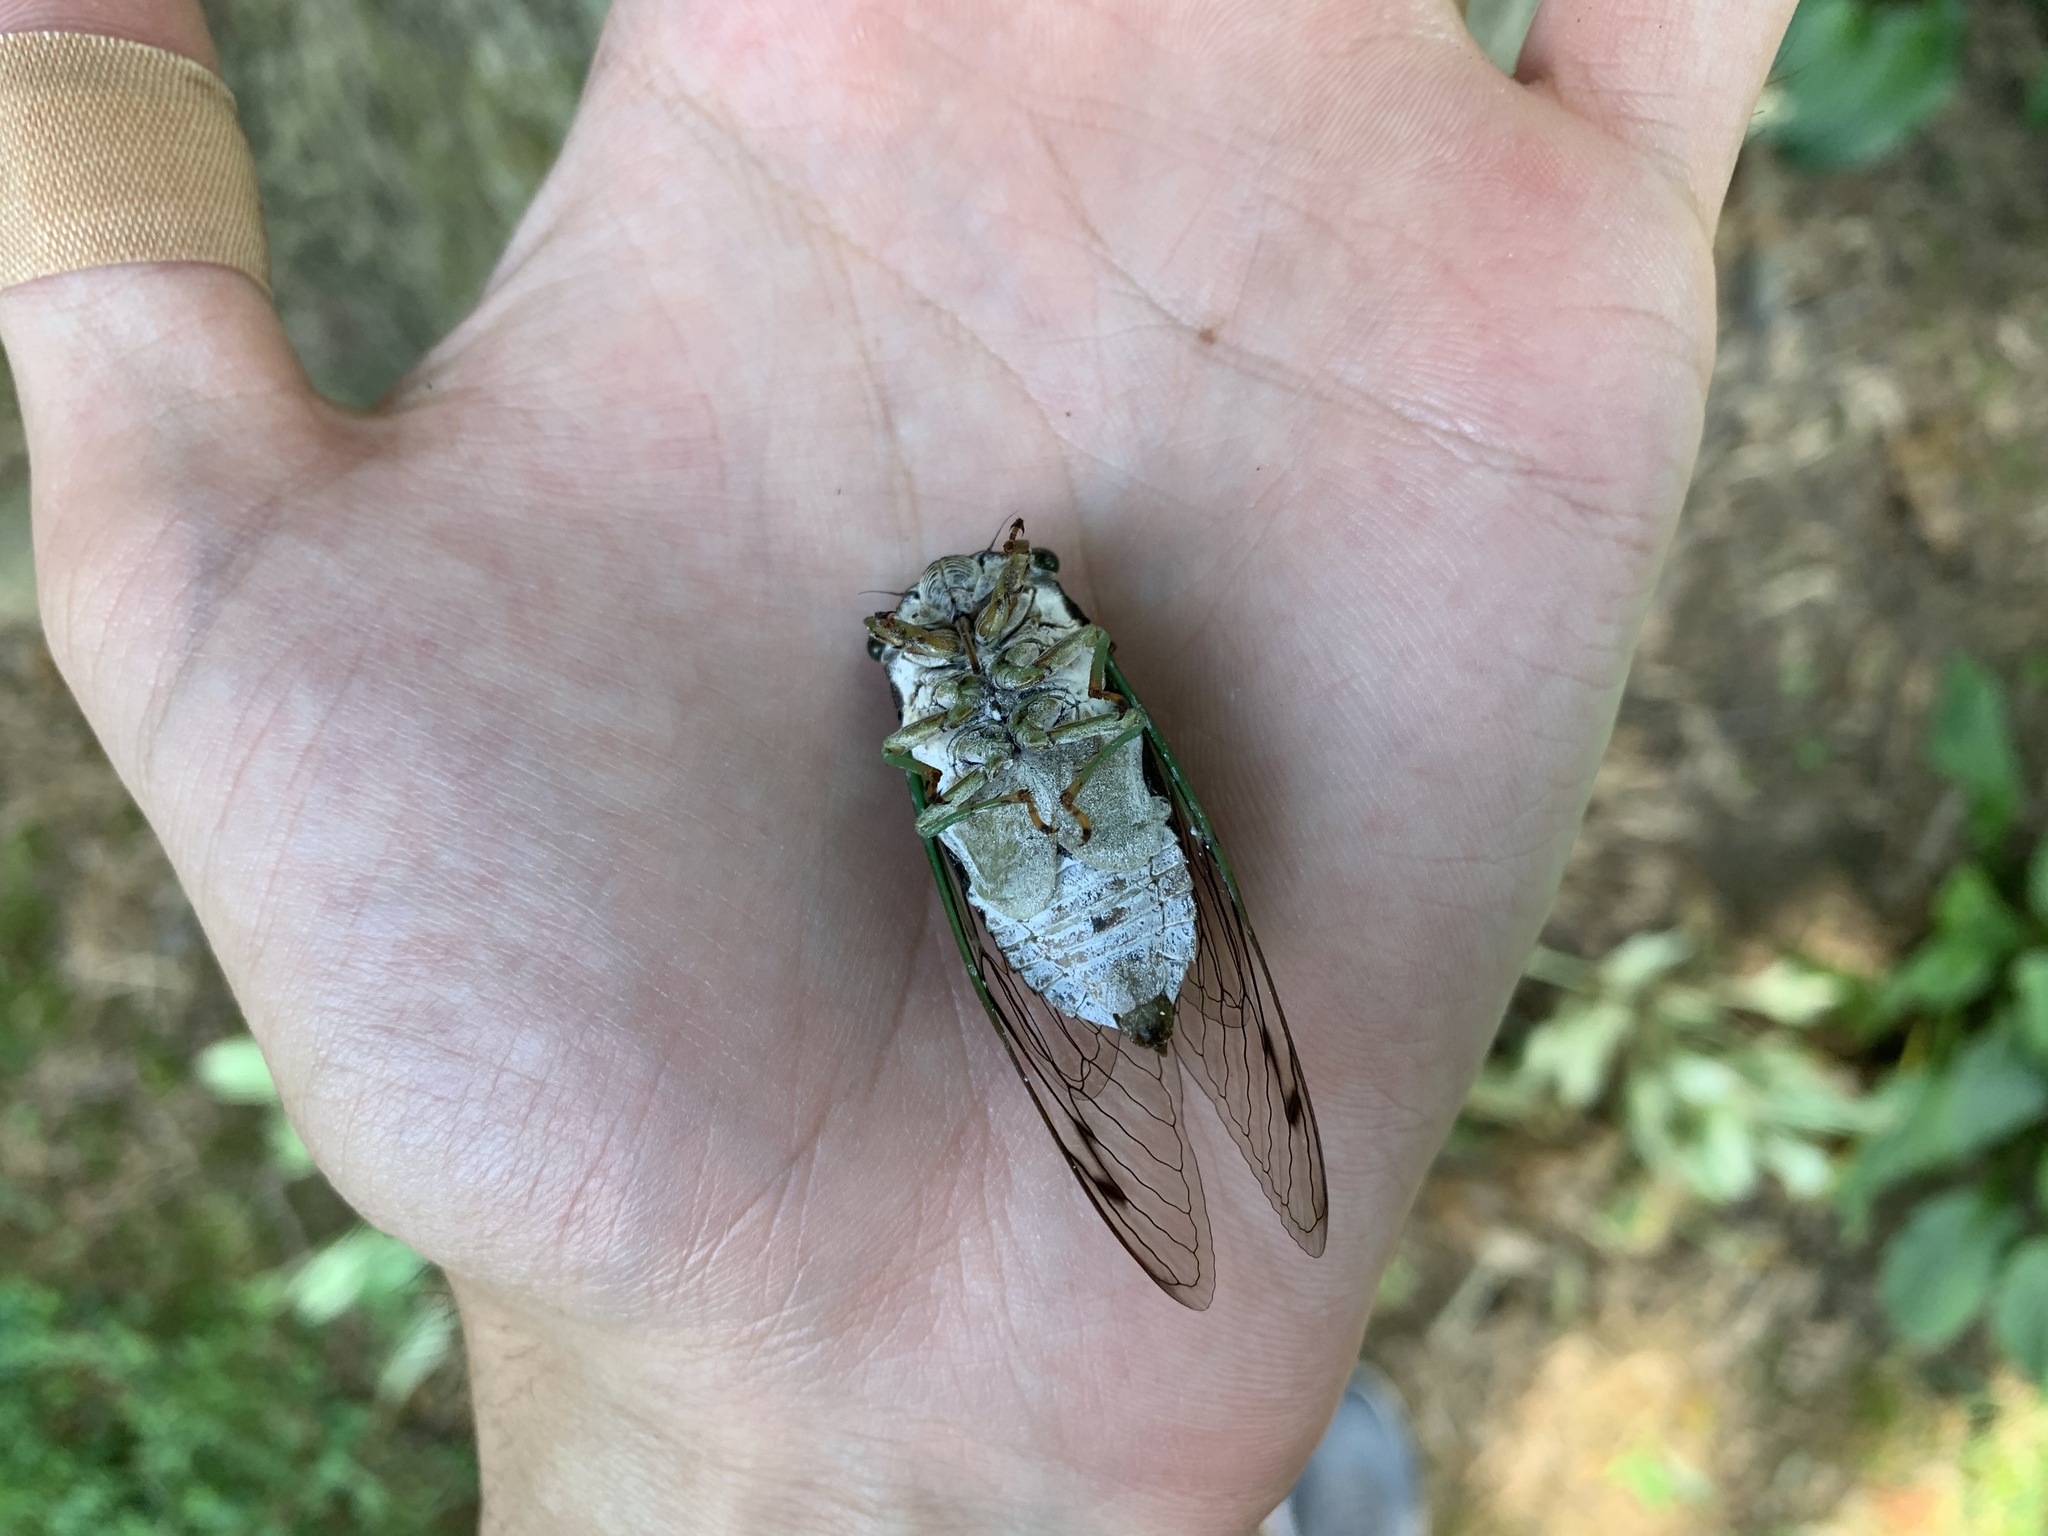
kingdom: Animalia
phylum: Arthropoda
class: Insecta
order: Hemiptera
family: Cicadidae
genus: Neotibicen
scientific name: Neotibicen tibicen
